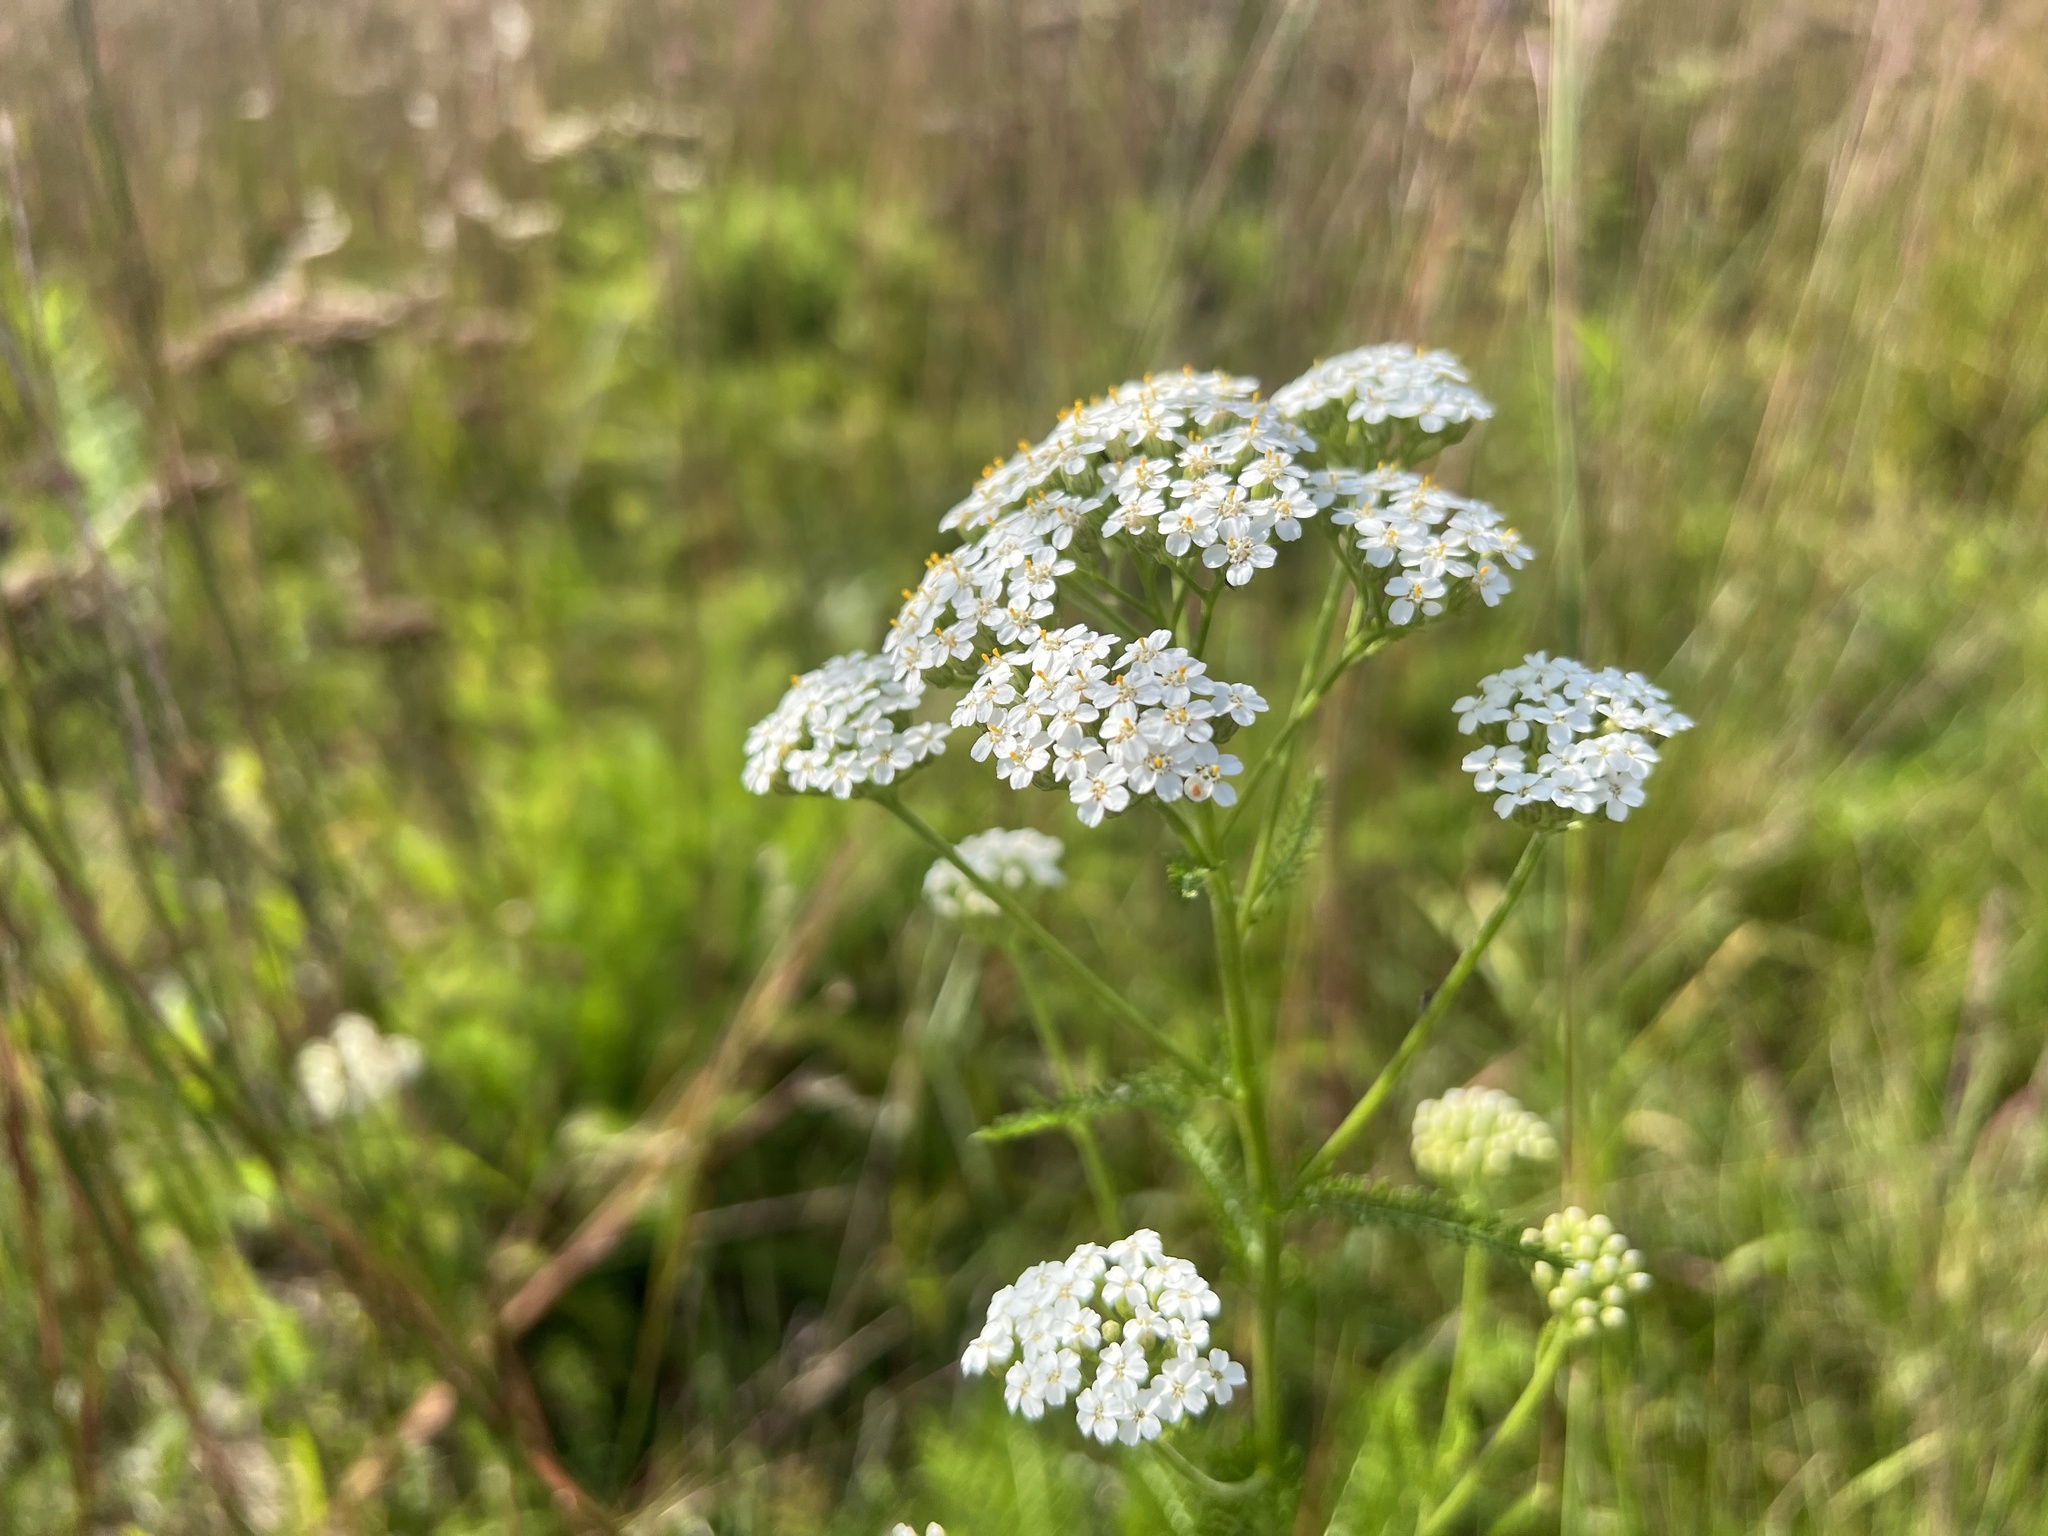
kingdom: Plantae
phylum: Tracheophyta
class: Magnoliopsida
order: Asterales
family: Asteraceae
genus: Achillea
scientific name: Achillea millefolium
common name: Yarrow
